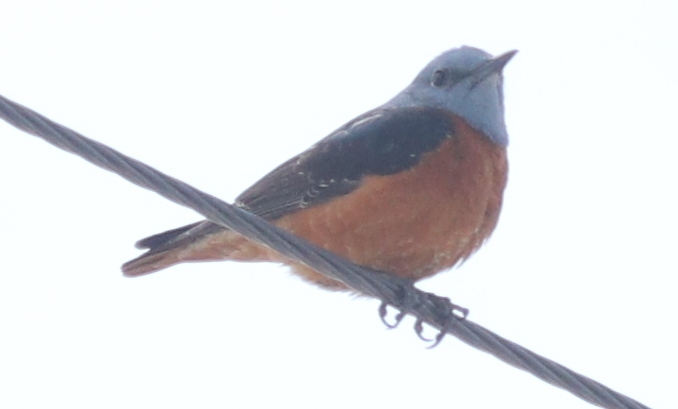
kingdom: Animalia
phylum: Chordata
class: Aves
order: Passeriformes
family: Muscicapidae
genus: Monticola
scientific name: Monticola saxatilis
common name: Rufous-tailed rock thrush
